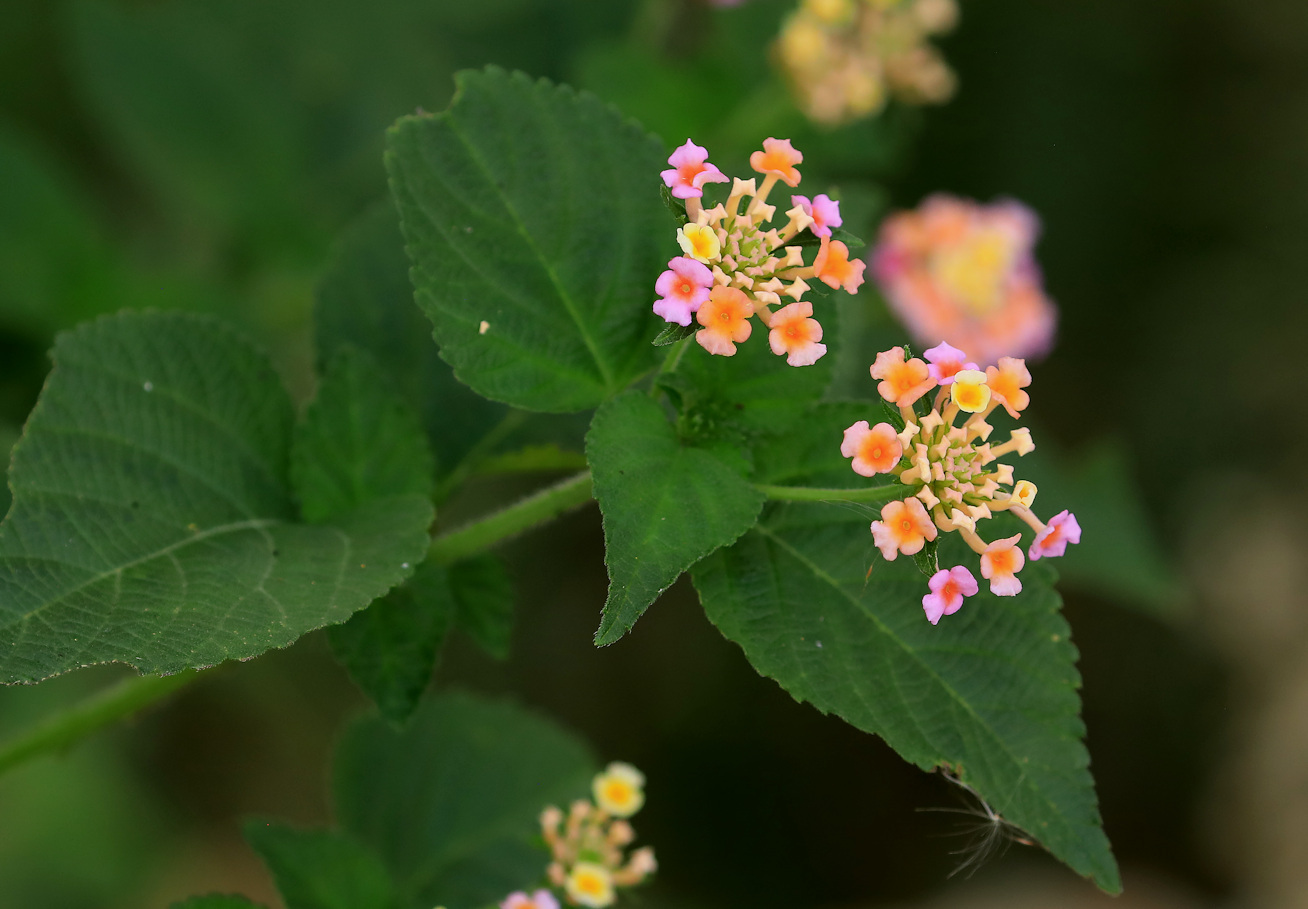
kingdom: Plantae
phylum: Tracheophyta
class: Magnoliopsida
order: Lamiales
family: Verbenaceae
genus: Lantana
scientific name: Lantana camara
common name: Lantana
